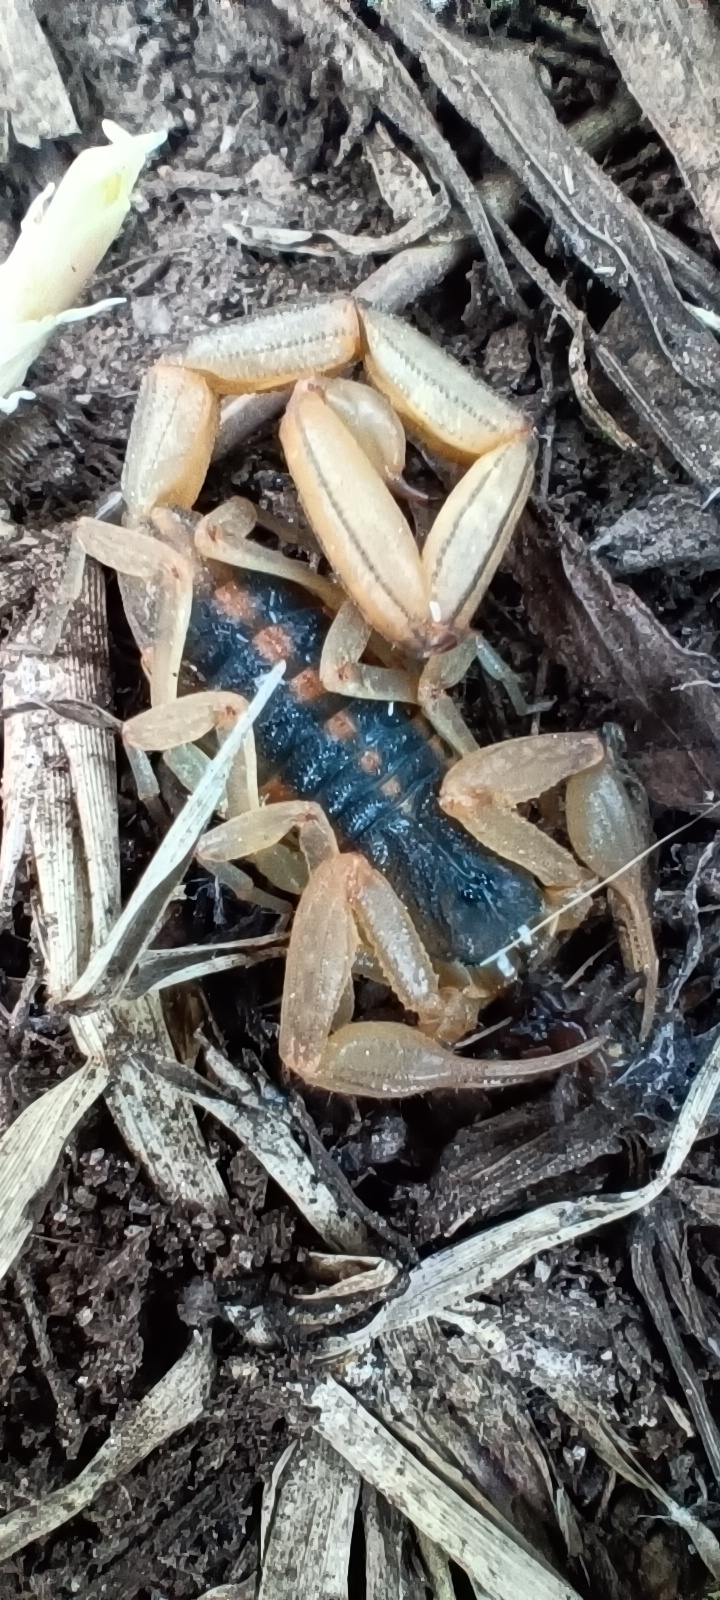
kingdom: Animalia
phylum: Arthropoda
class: Arachnida
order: Scorpiones
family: Buthidae
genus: Centruroides
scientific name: Centruroides ornatus
